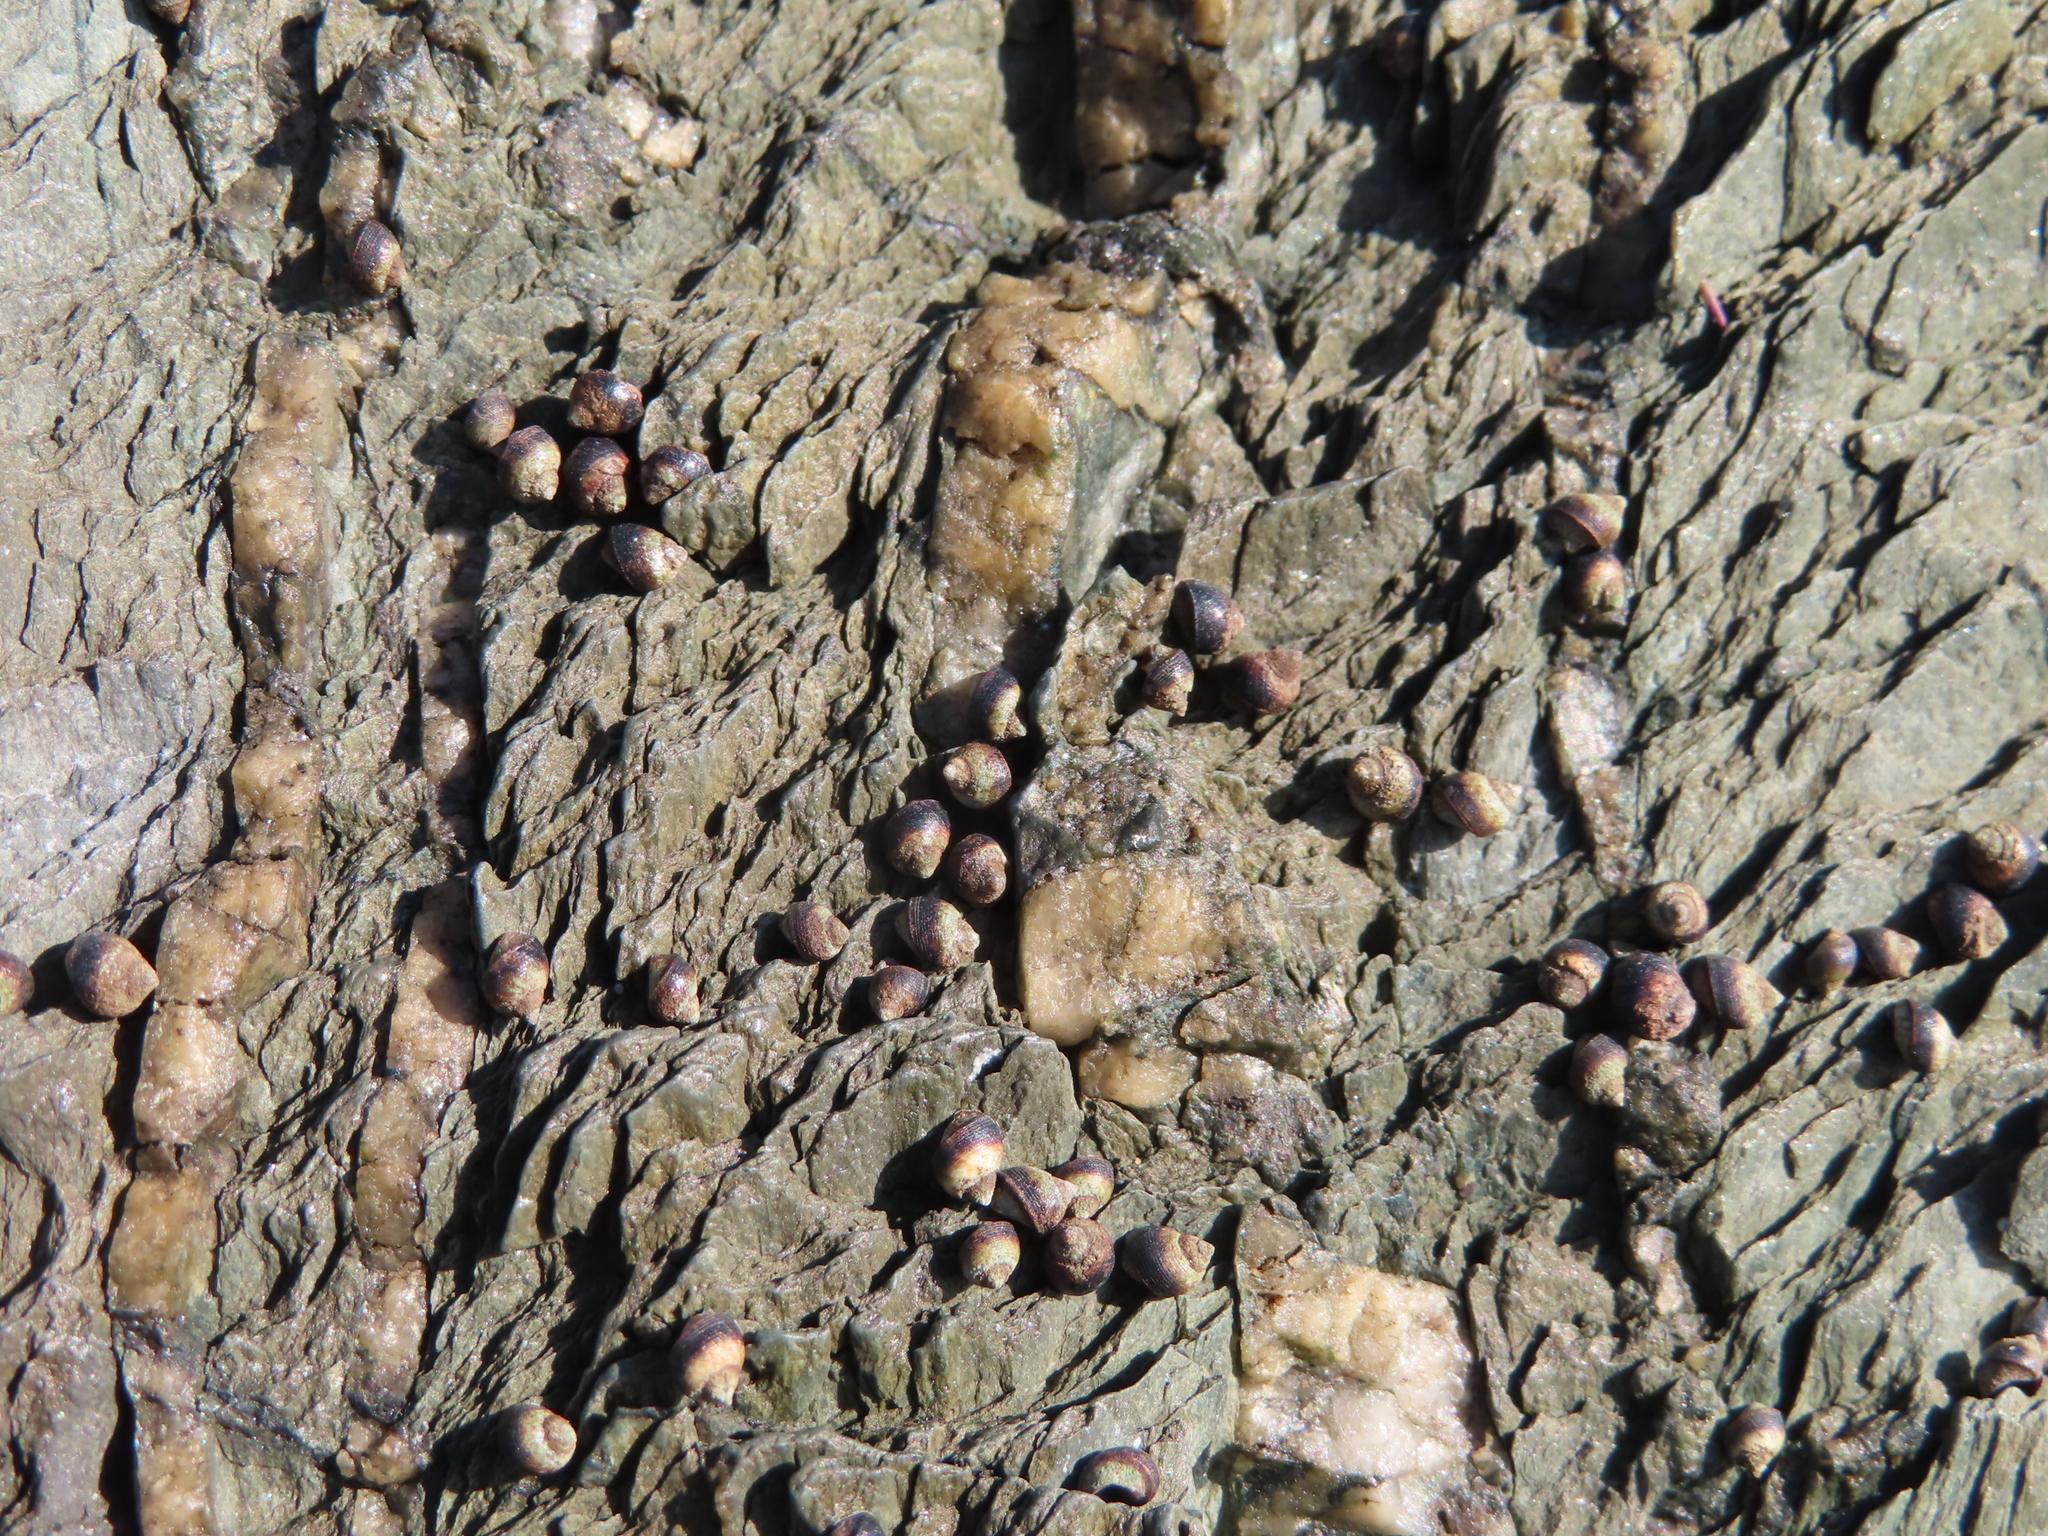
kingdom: Animalia
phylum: Mollusca
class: Gastropoda
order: Littorinimorpha
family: Littorinidae
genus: Afrolittorina
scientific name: Afrolittorina knysnaensis
